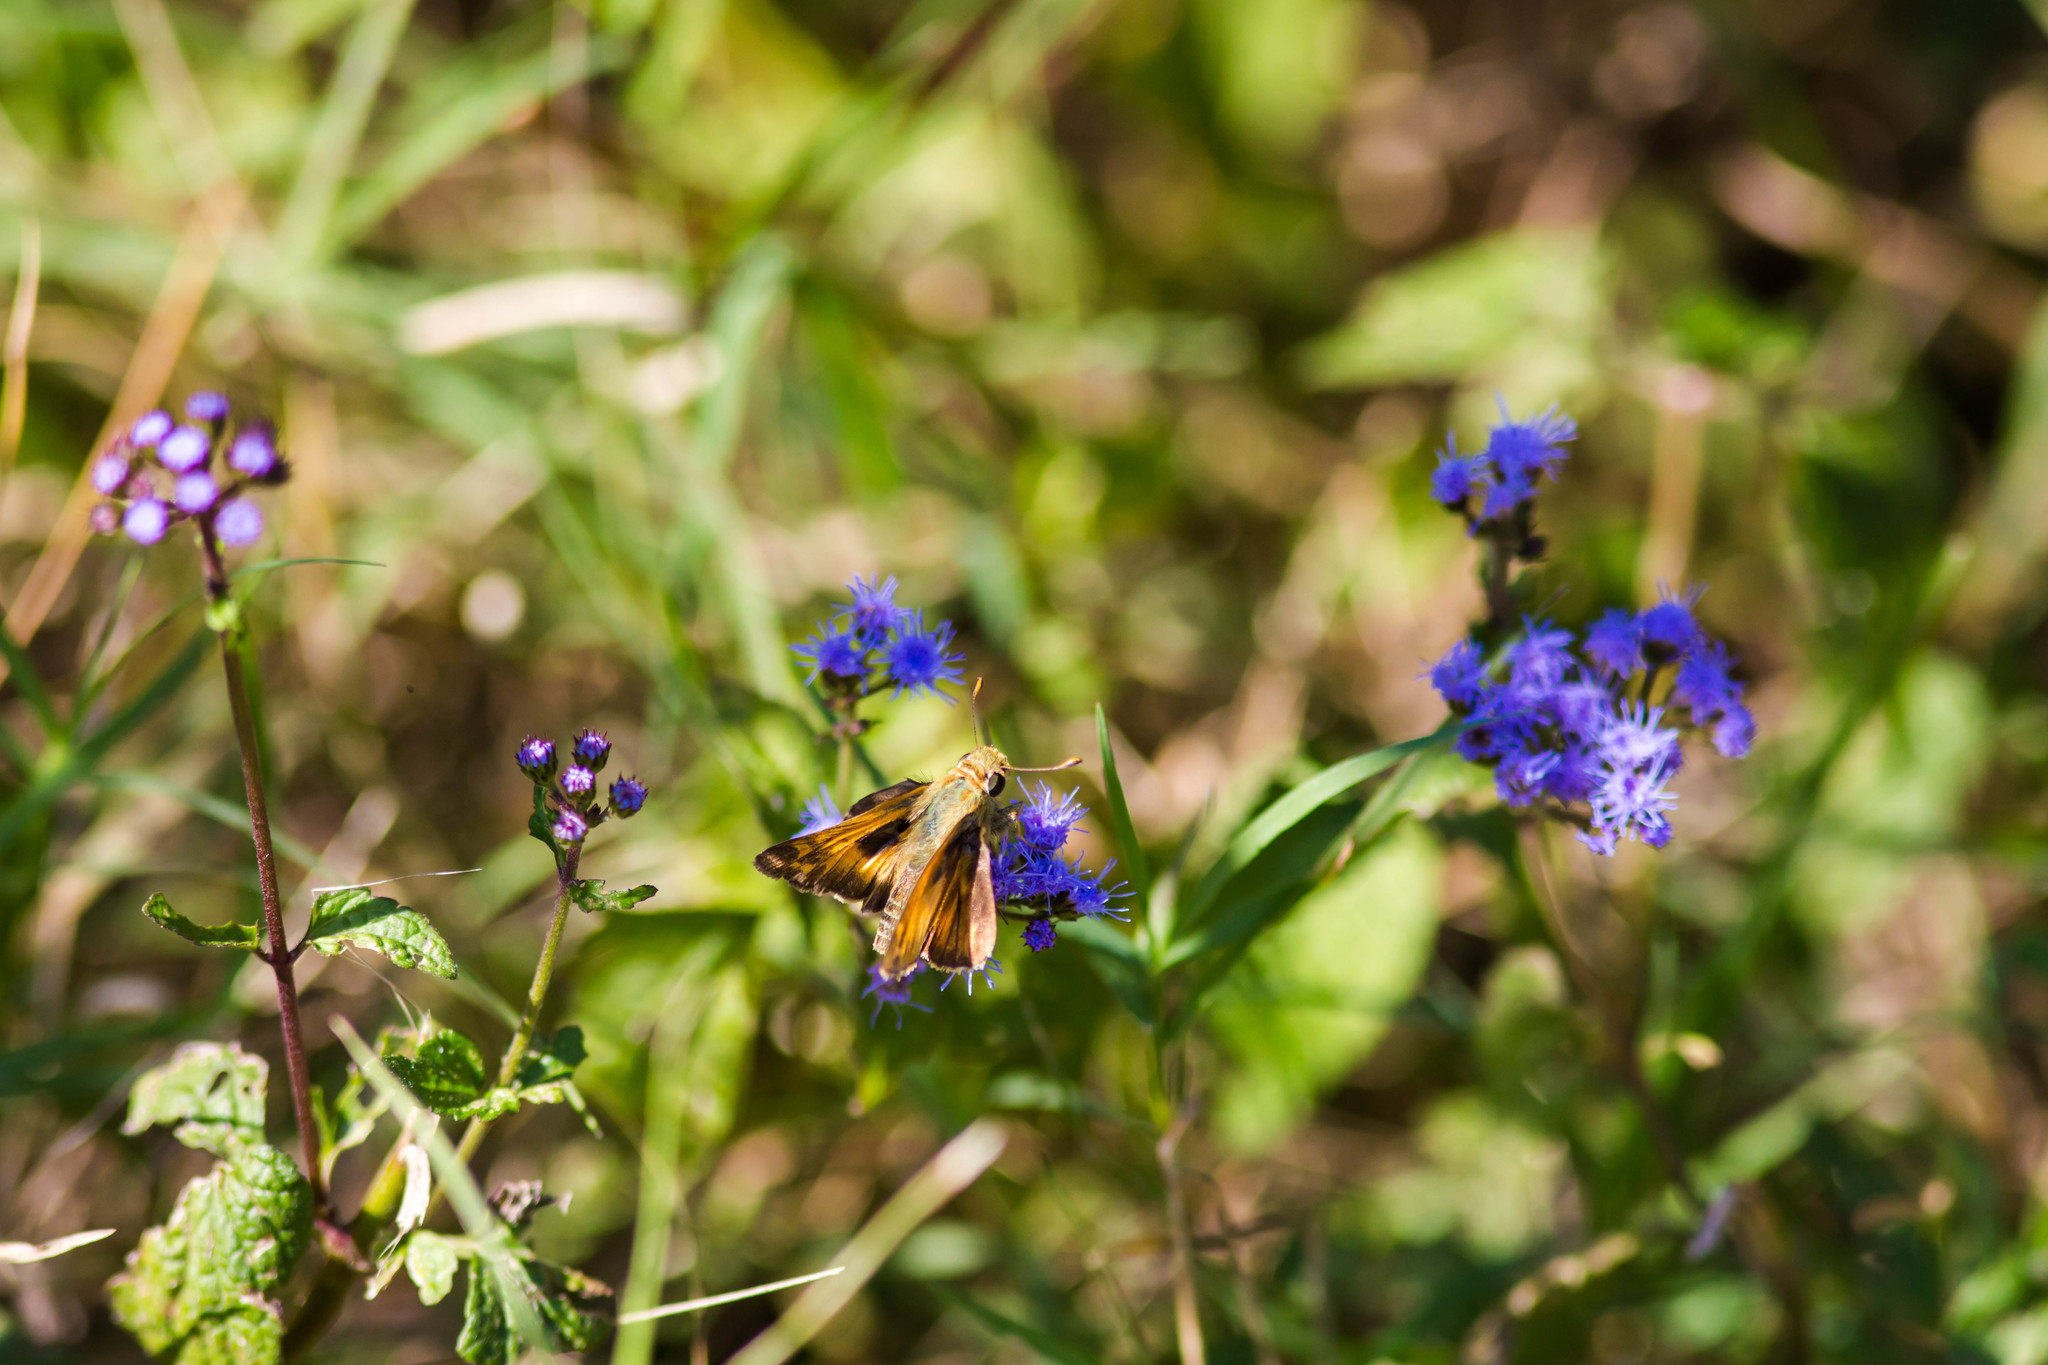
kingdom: Animalia
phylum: Arthropoda
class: Insecta
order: Lepidoptera
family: Hesperiidae
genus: Atalopedes
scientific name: Atalopedes
